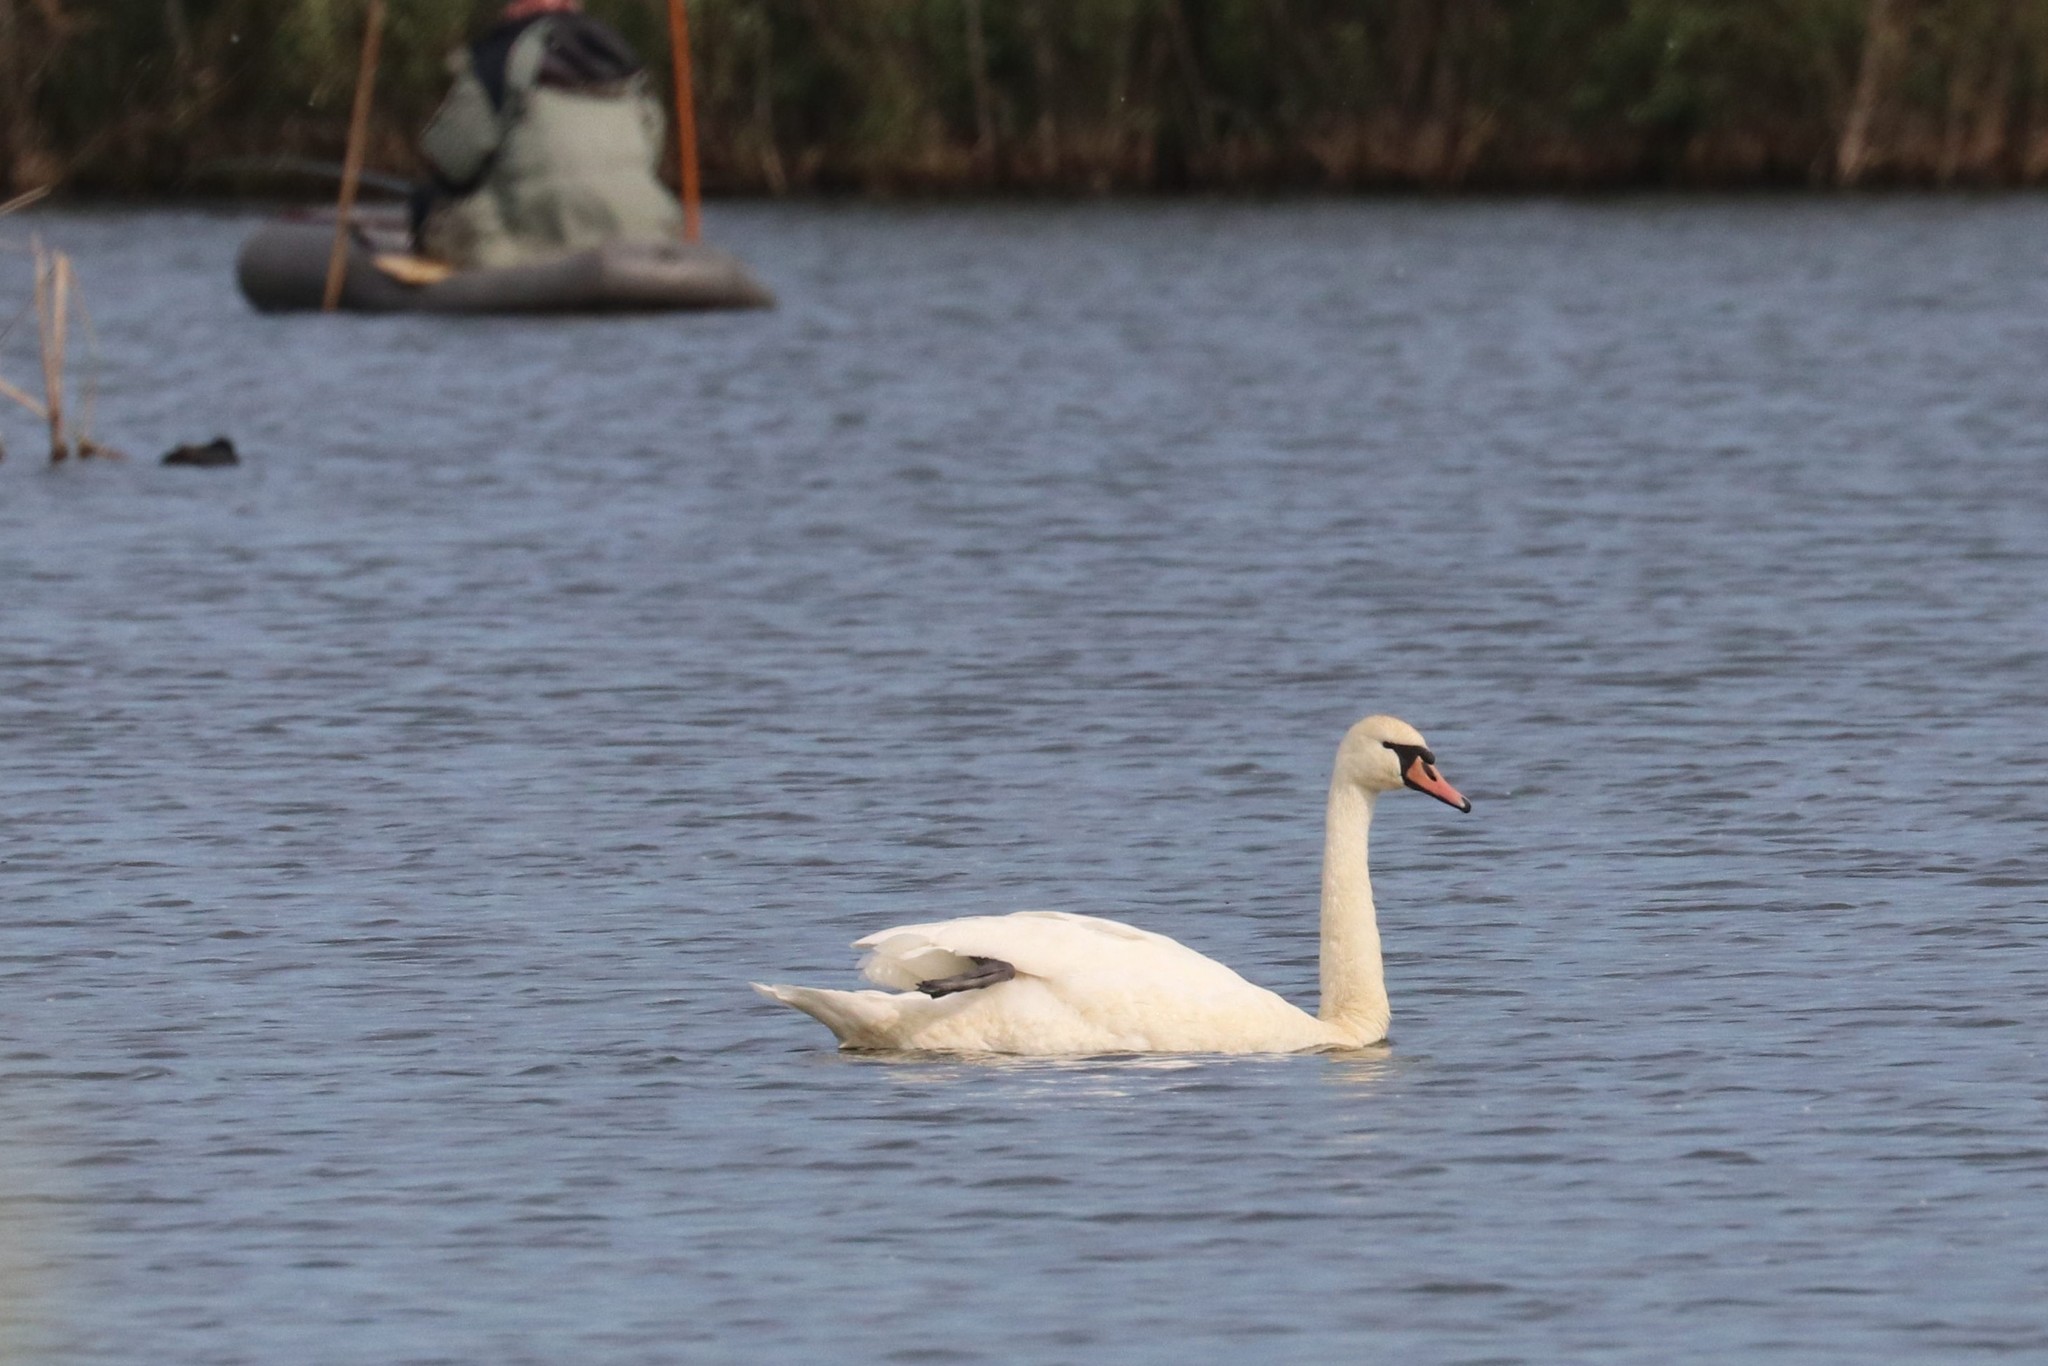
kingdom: Animalia
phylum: Chordata
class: Aves
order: Anseriformes
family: Anatidae
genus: Cygnus
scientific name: Cygnus olor
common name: Mute swan
